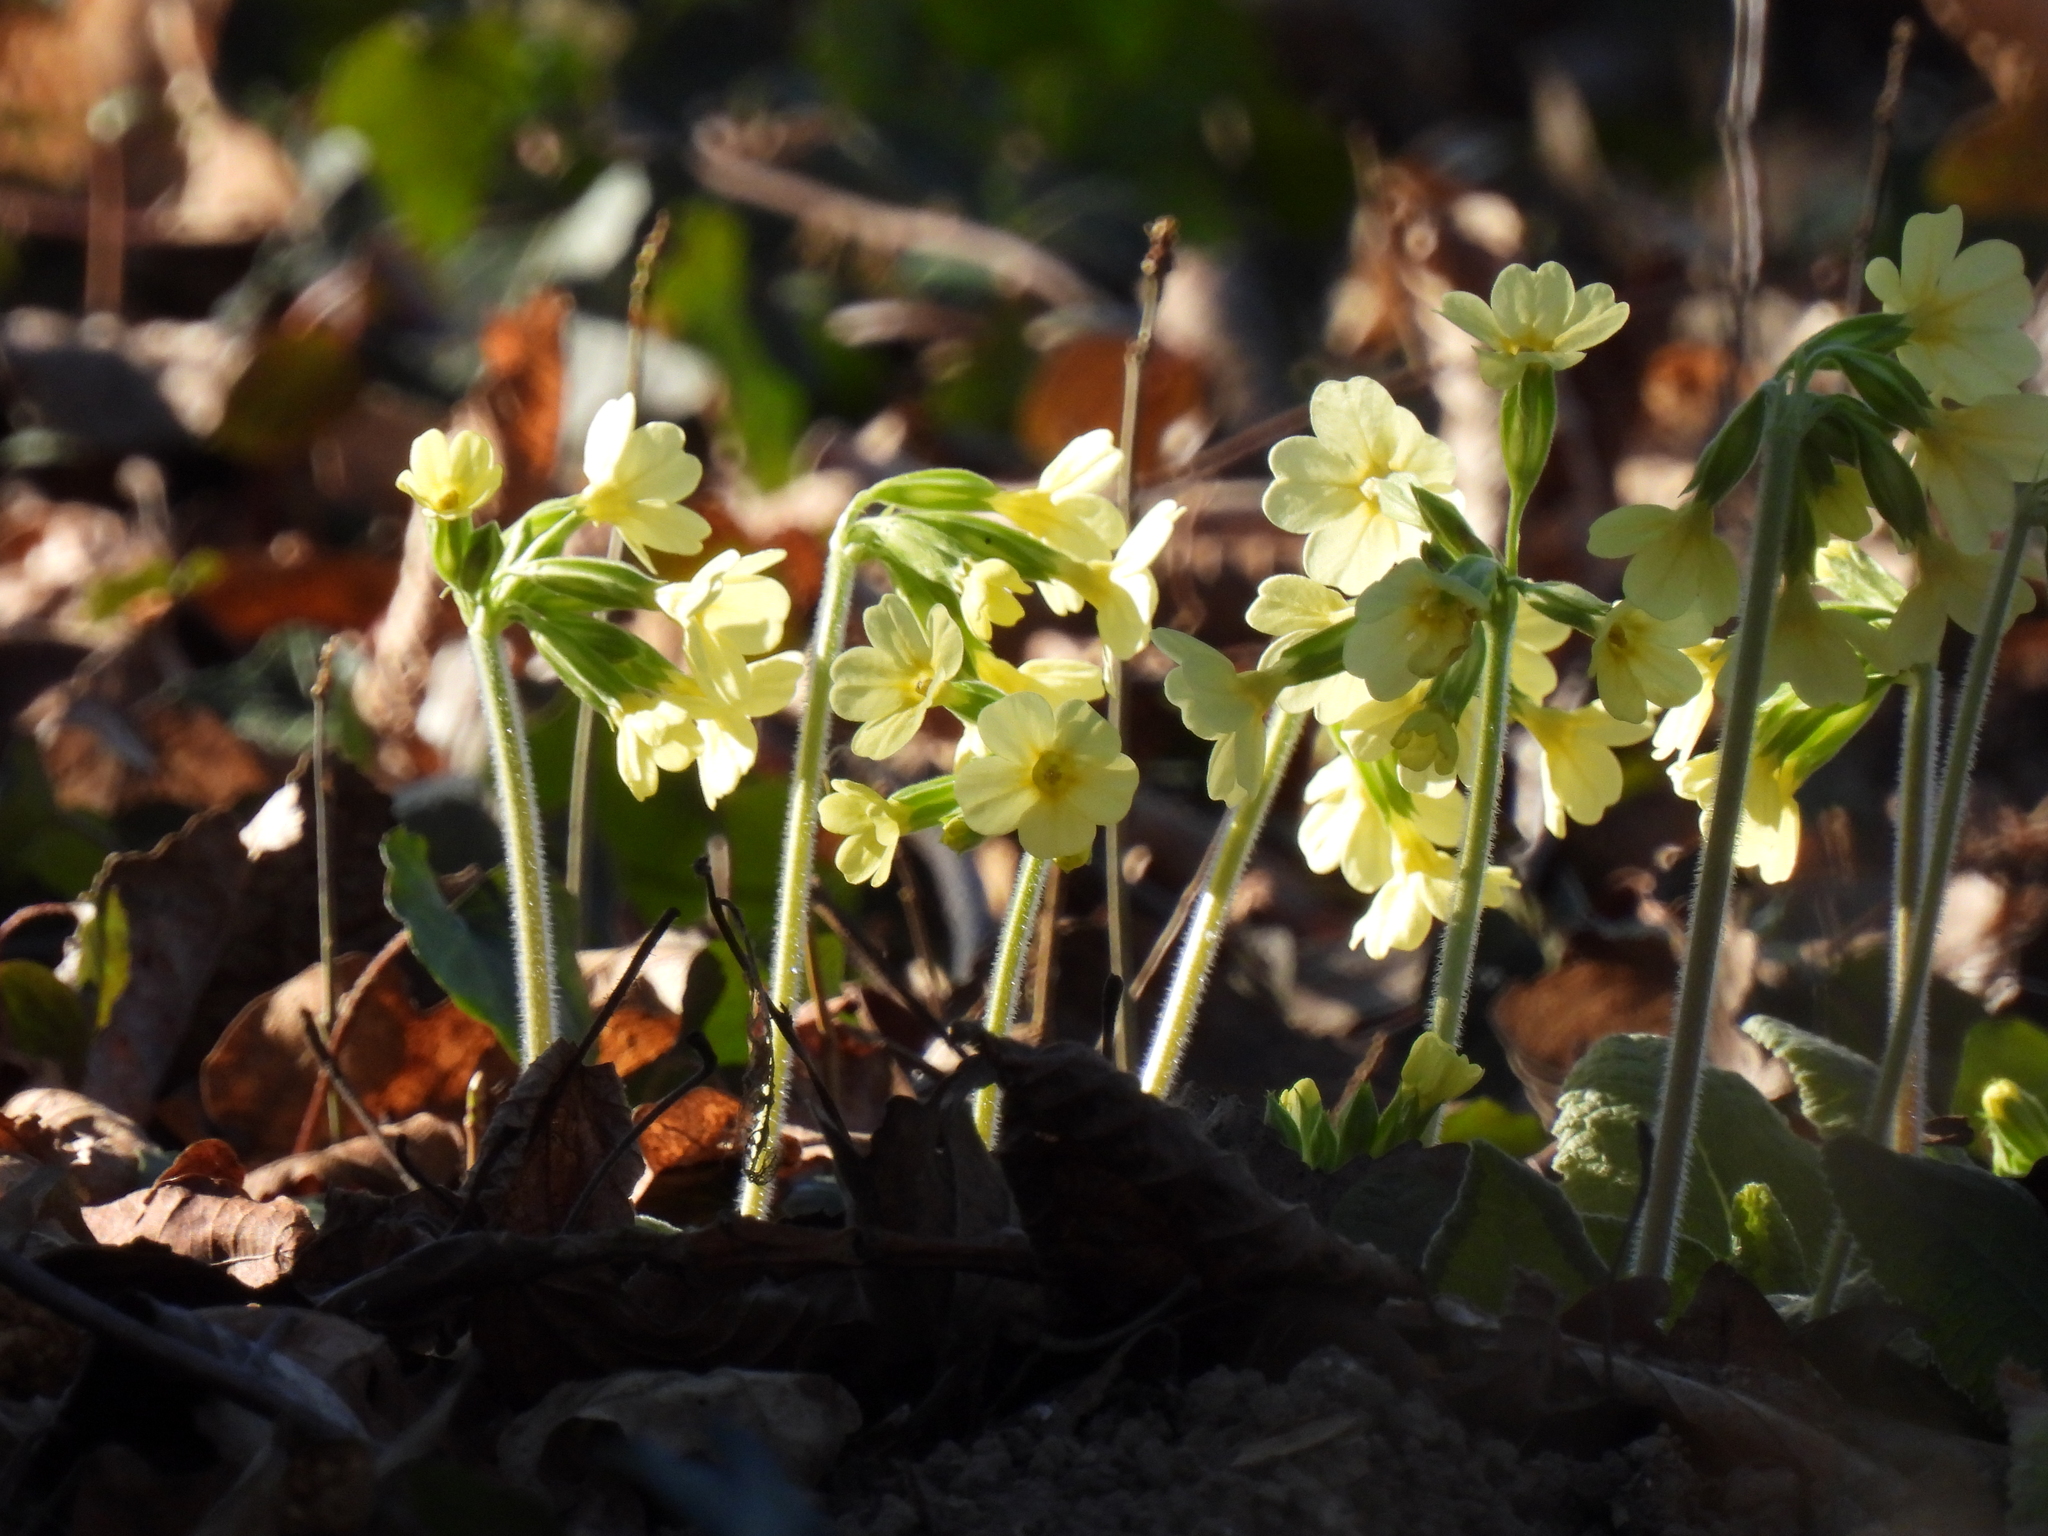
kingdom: Plantae
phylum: Tracheophyta
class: Magnoliopsida
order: Ericales
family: Primulaceae
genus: Primula
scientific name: Primula elatior
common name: Oxlip
